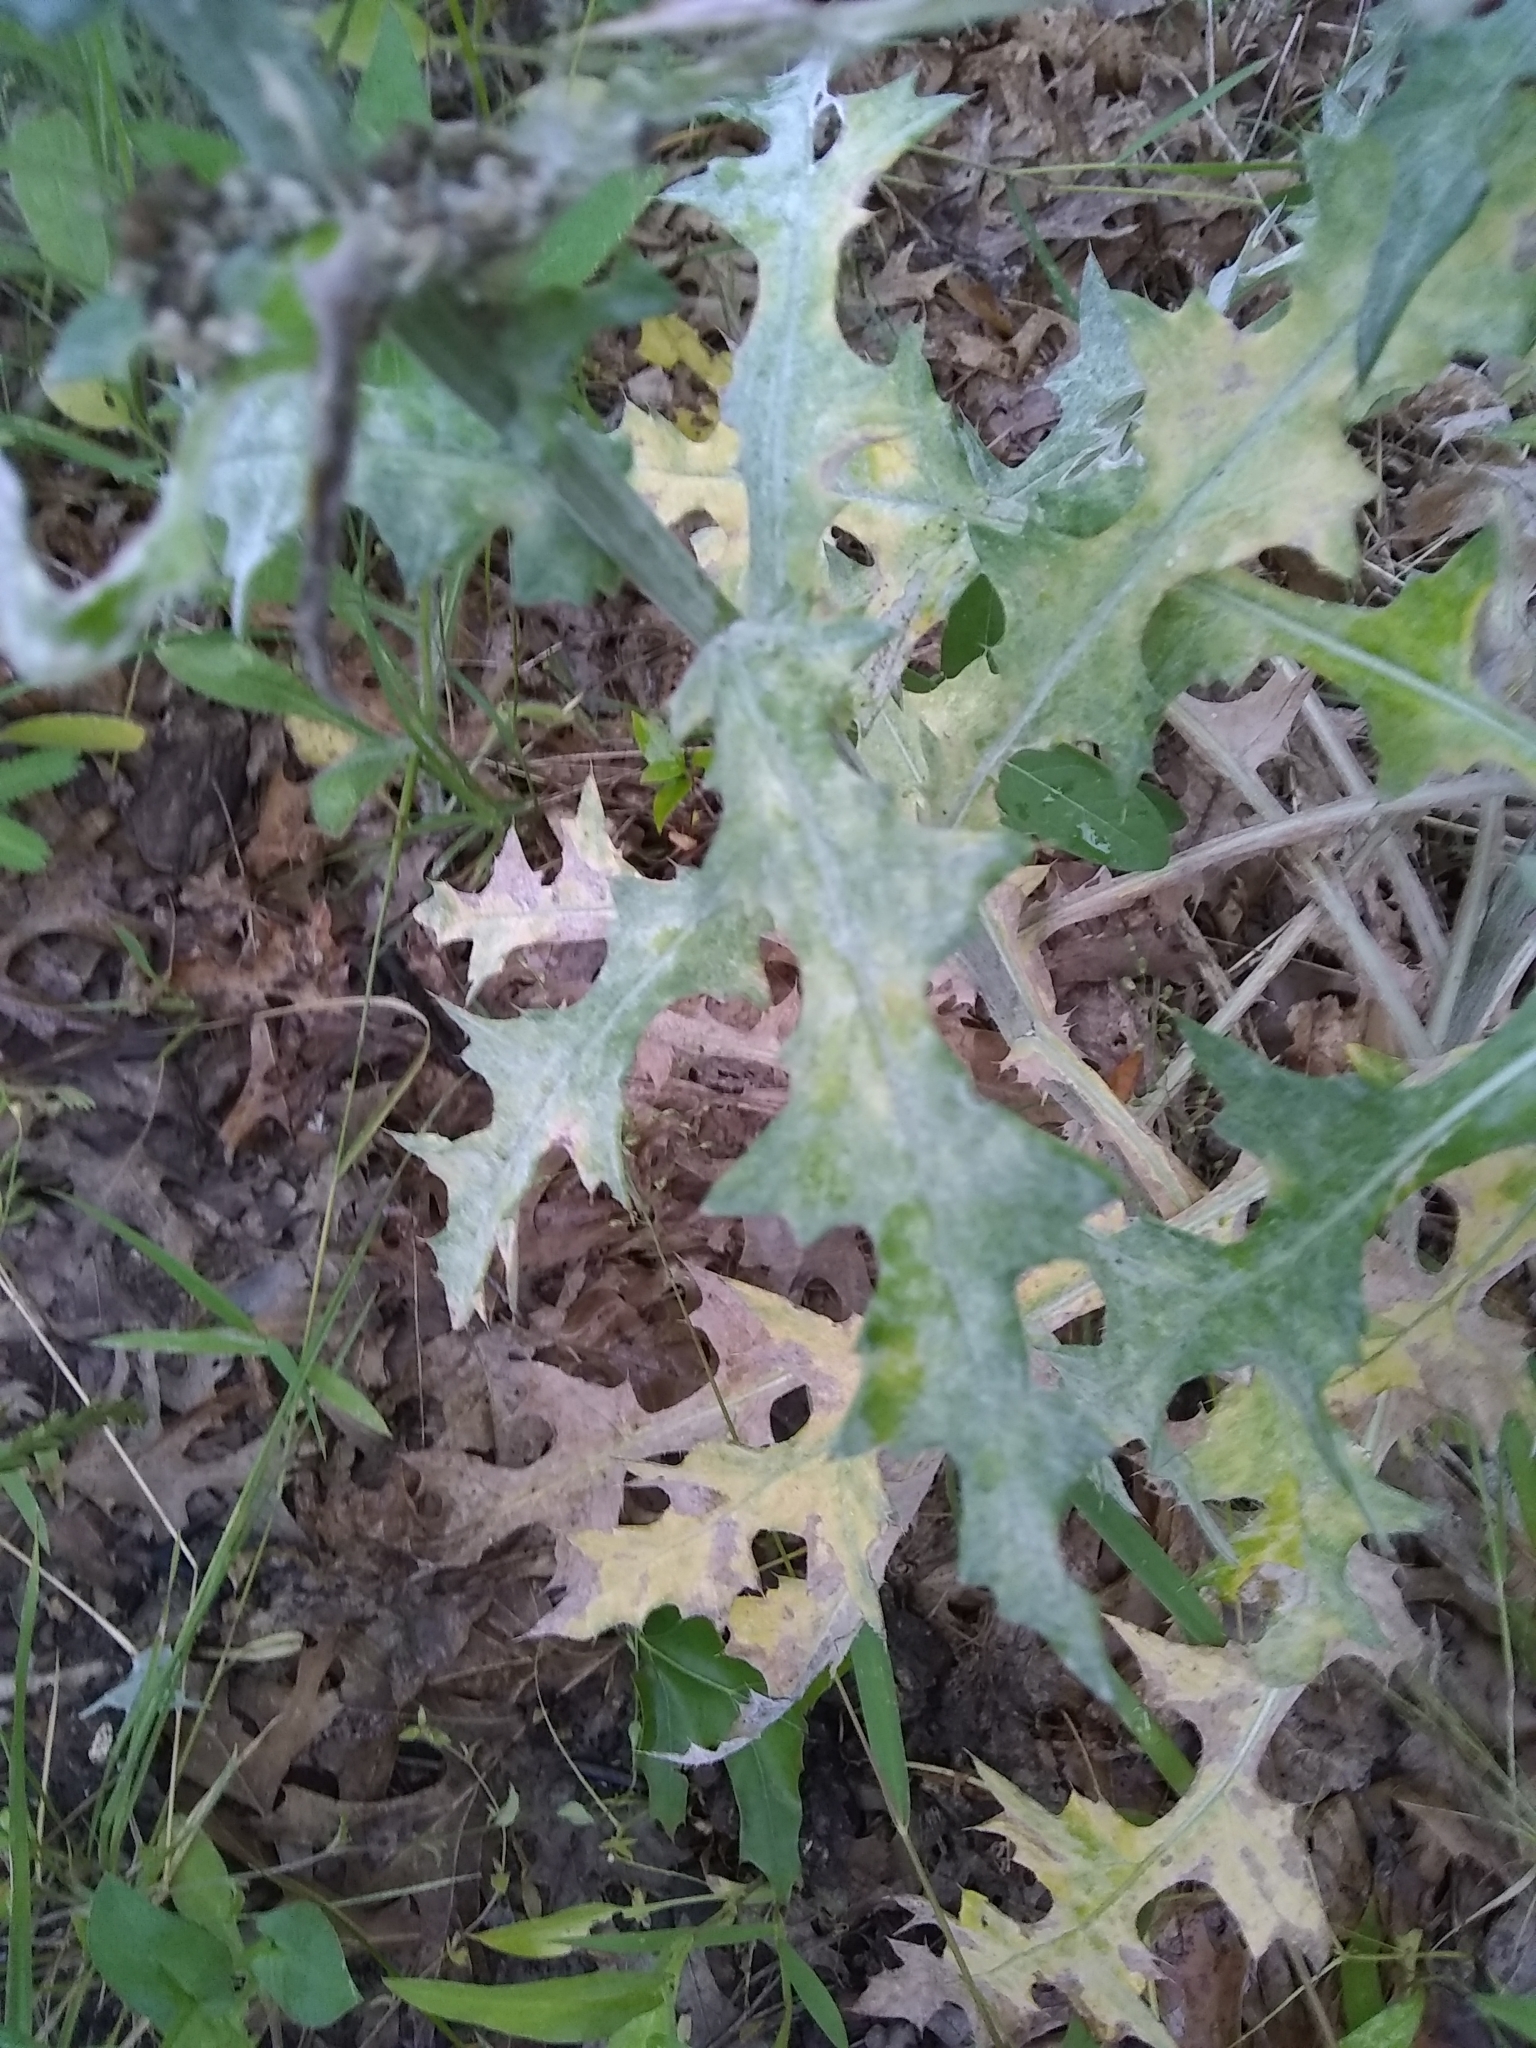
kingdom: Plantae
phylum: Tracheophyta
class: Magnoliopsida
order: Asterales
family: Asteraceae
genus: Cirsium
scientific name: Cirsium texanum
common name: Texas purple thistle
